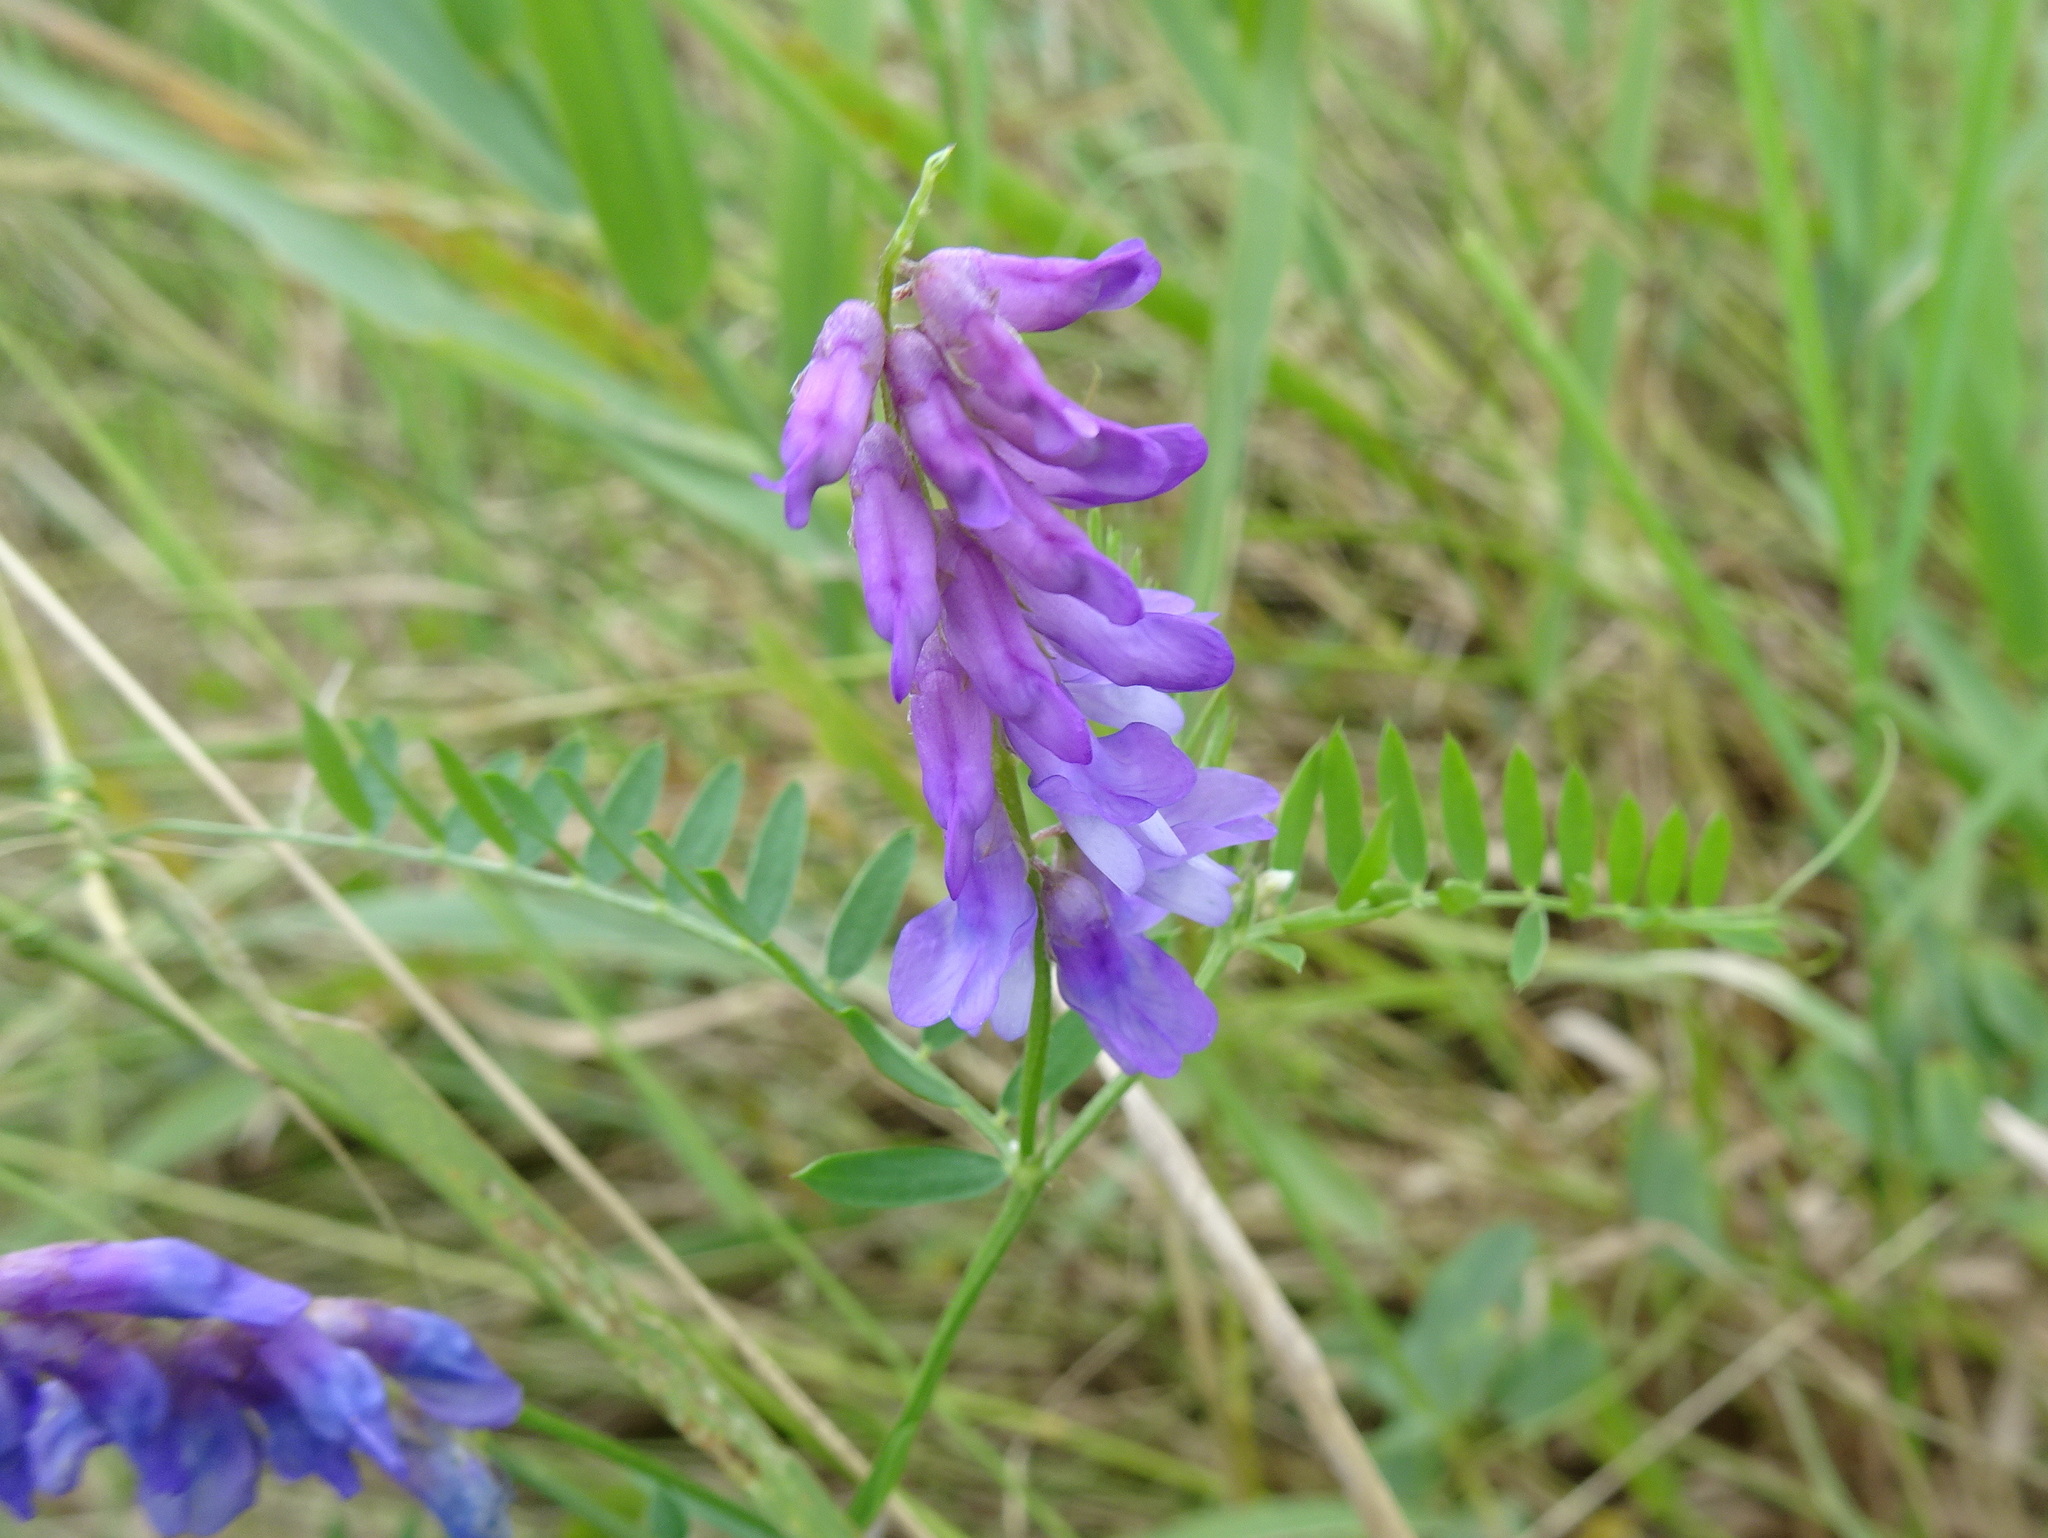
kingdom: Plantae
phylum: Tracheophyta
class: Magnoliopsida
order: Fabales
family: Fabaceae
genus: Vicia
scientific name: Vicia cracca
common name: Bird vetch
